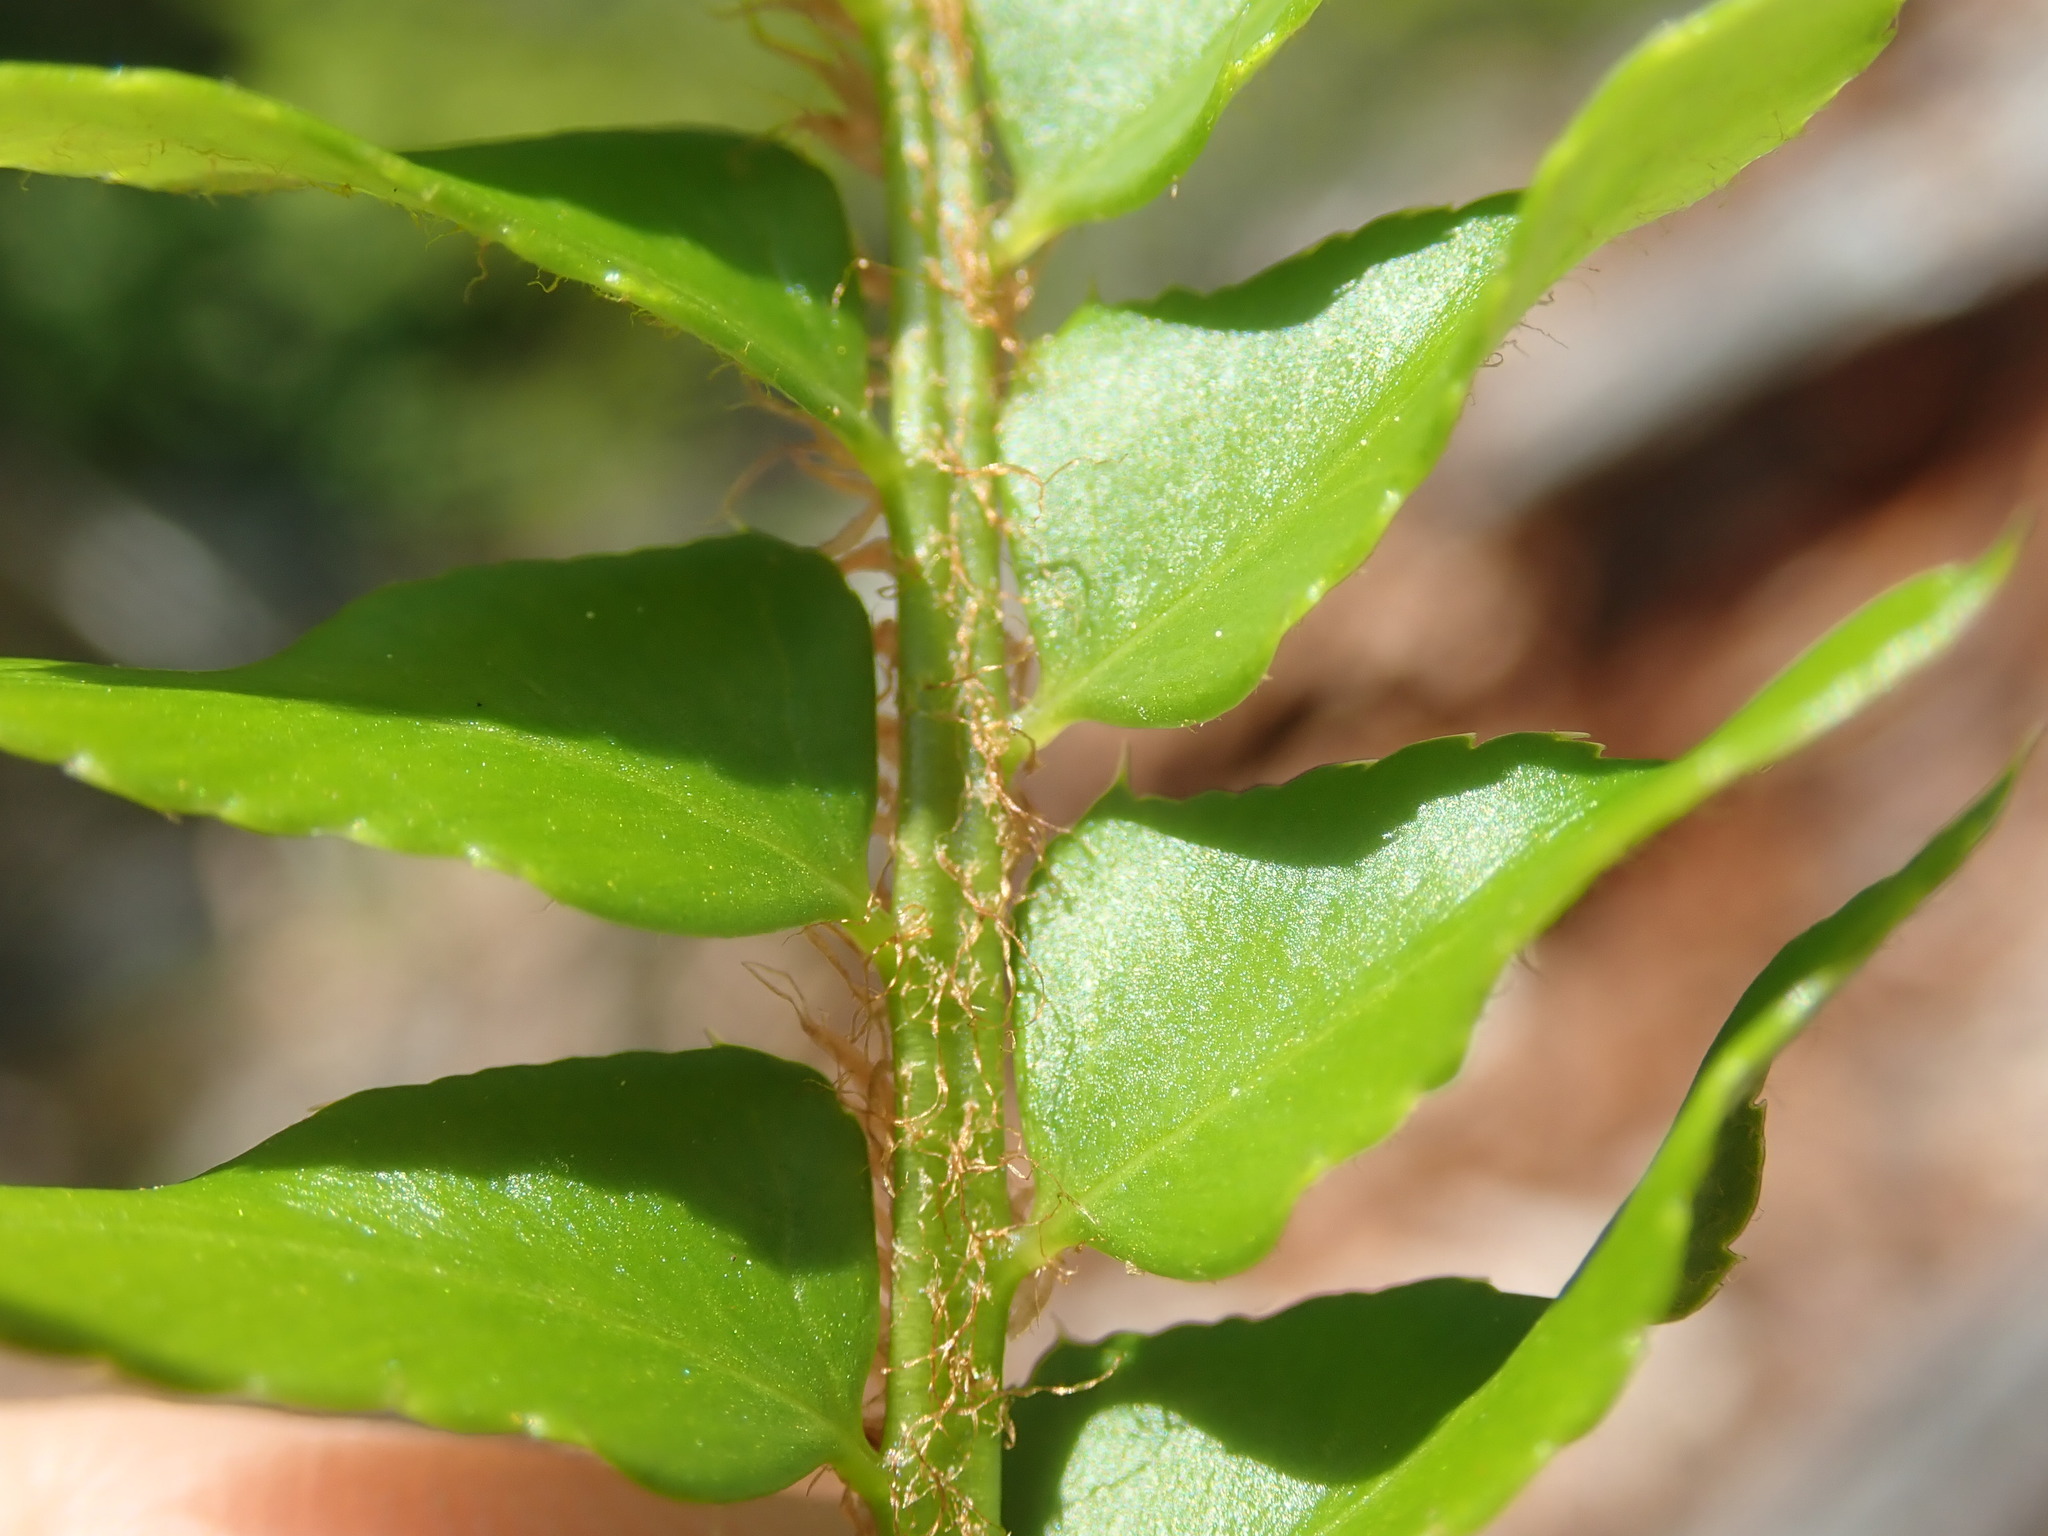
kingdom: Plantae
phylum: Tracheophyta
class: Polypodiopsida
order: Polypodiales
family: Dryopteridaceae
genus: Polystichum
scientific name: Polystichum imbricans
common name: Dwarf western sword fern
